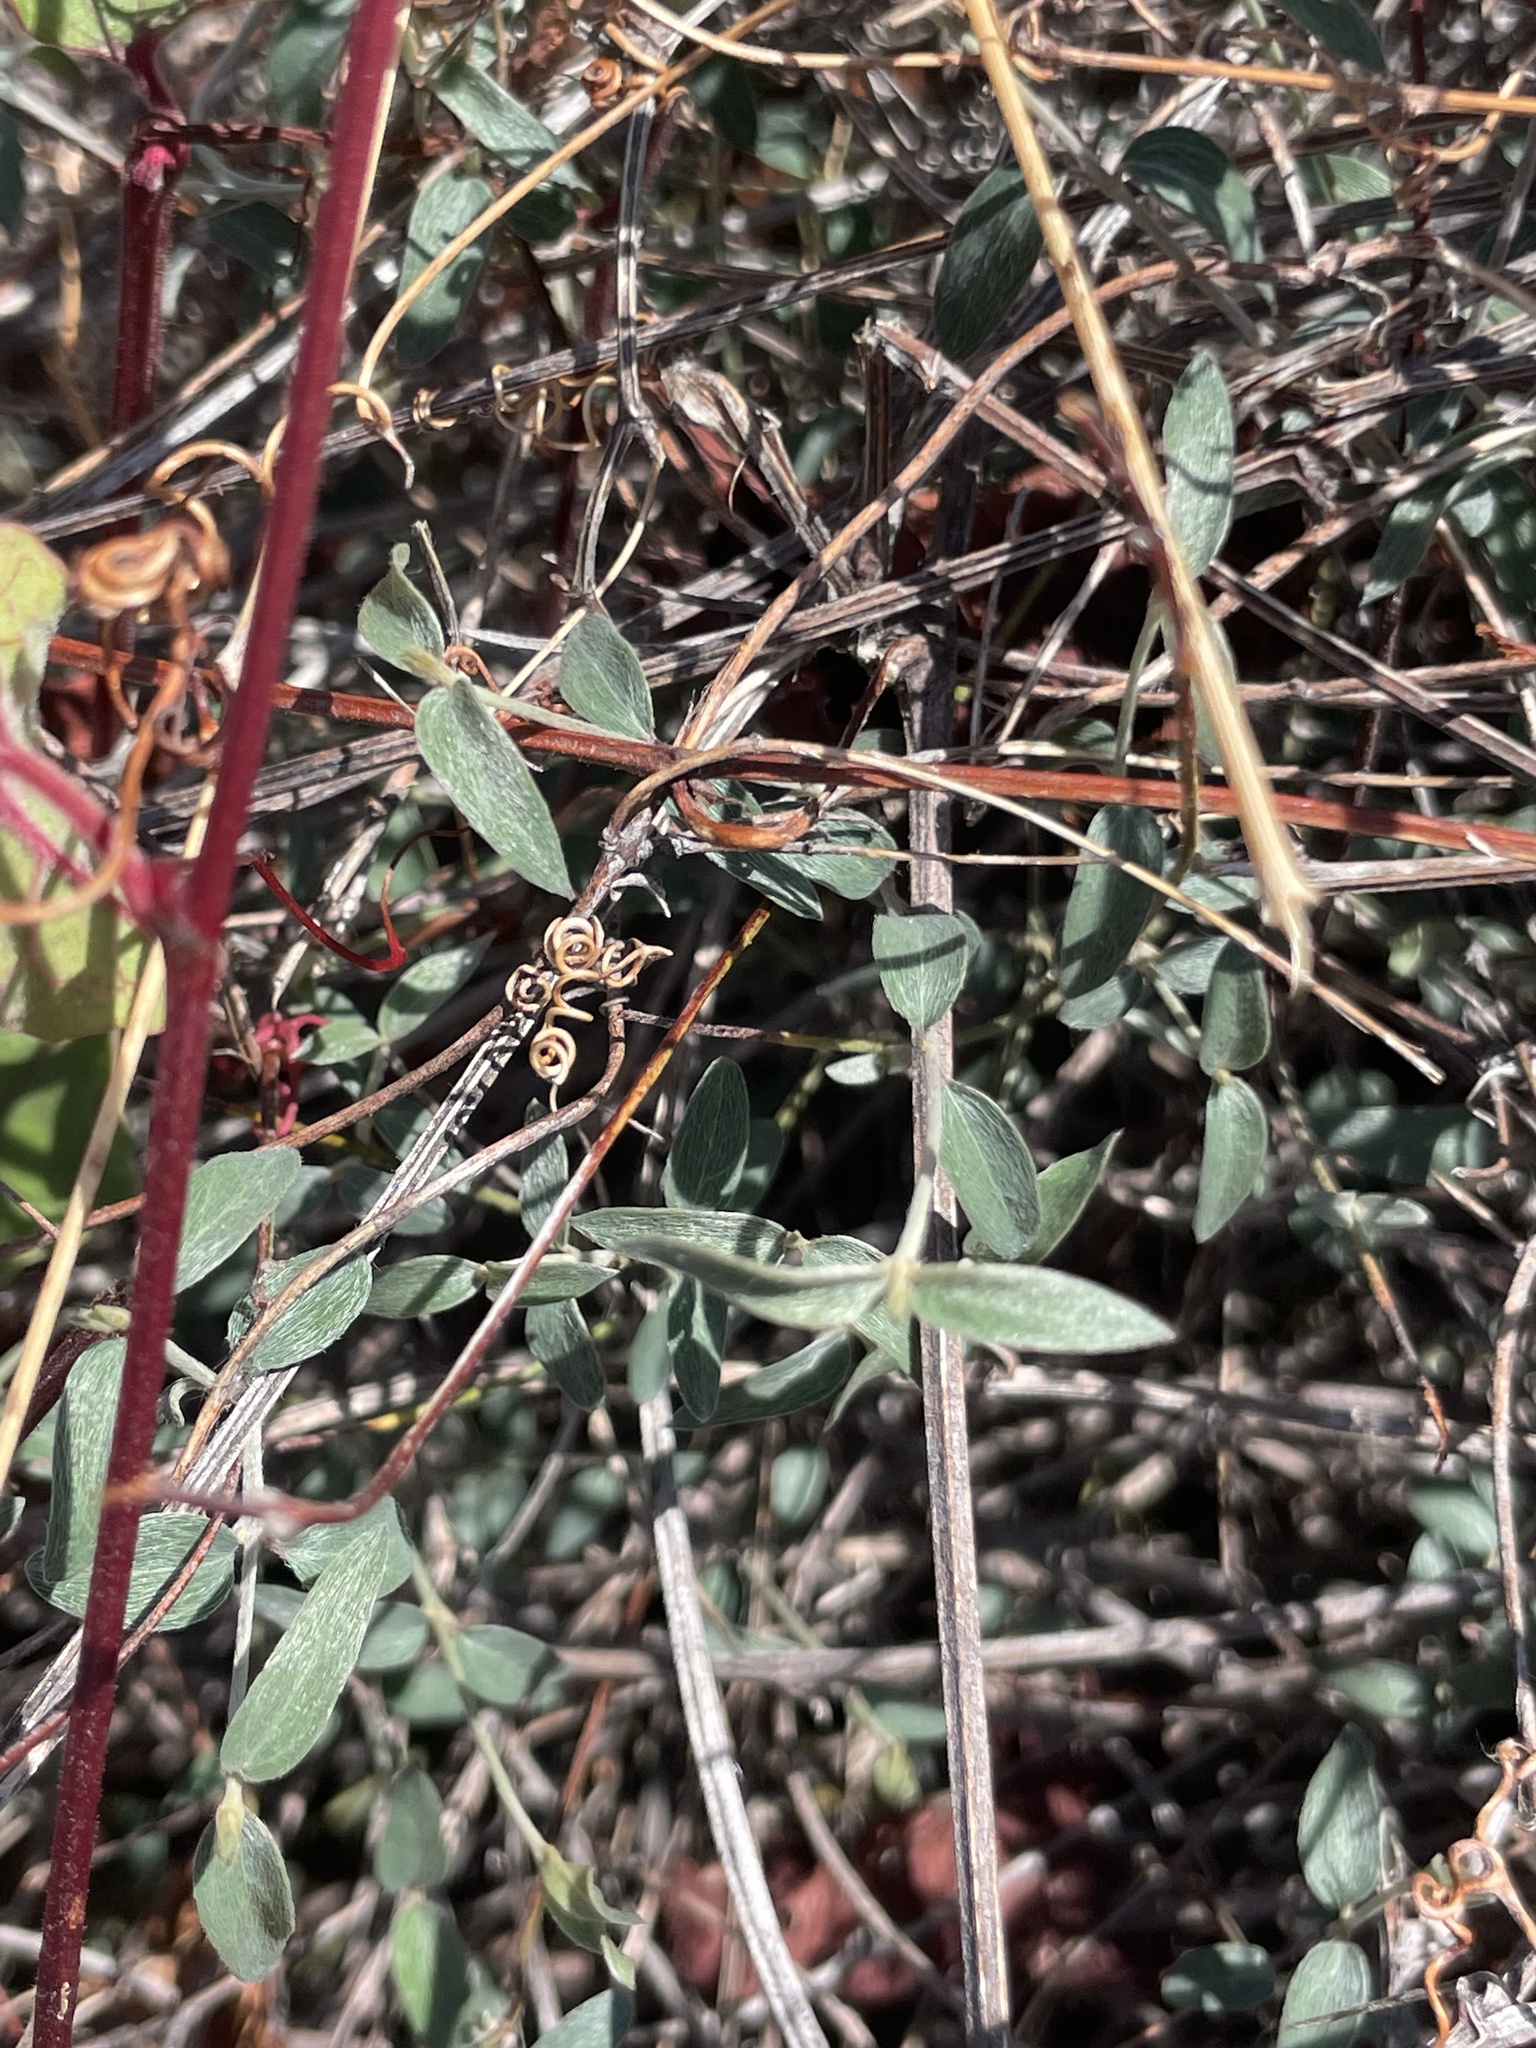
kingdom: Plantae
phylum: Tracheophyta
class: Magnoliopsida
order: Malpighiales
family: Malpighiaceae
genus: Cottsia
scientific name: Cottsia gracilis
